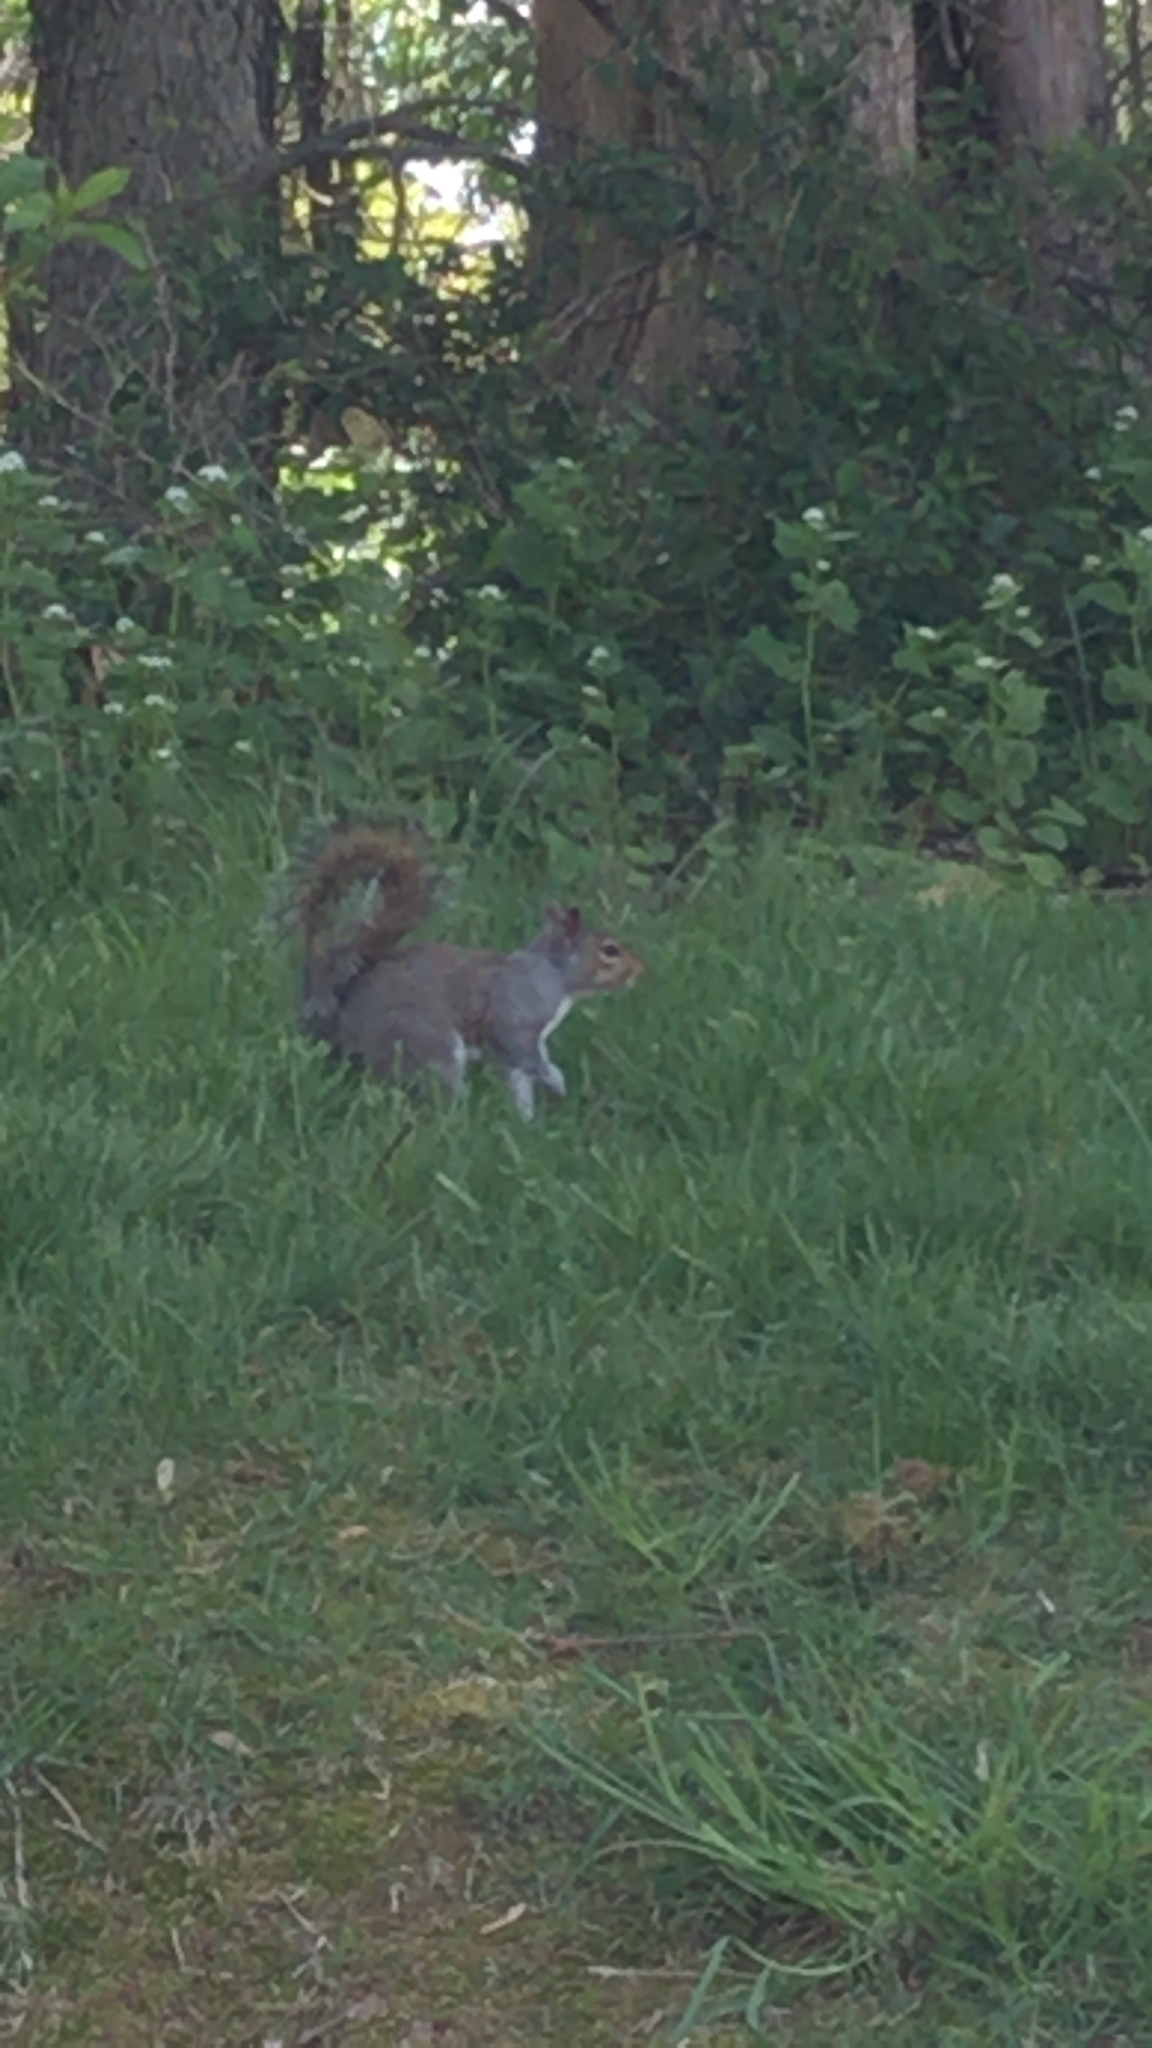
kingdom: Animalia
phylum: Chordata
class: Mammalia
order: Rodentia
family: Sciuridae
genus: Sciurus
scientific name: Sciurus carolinensis
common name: Eastern gray squirrel
